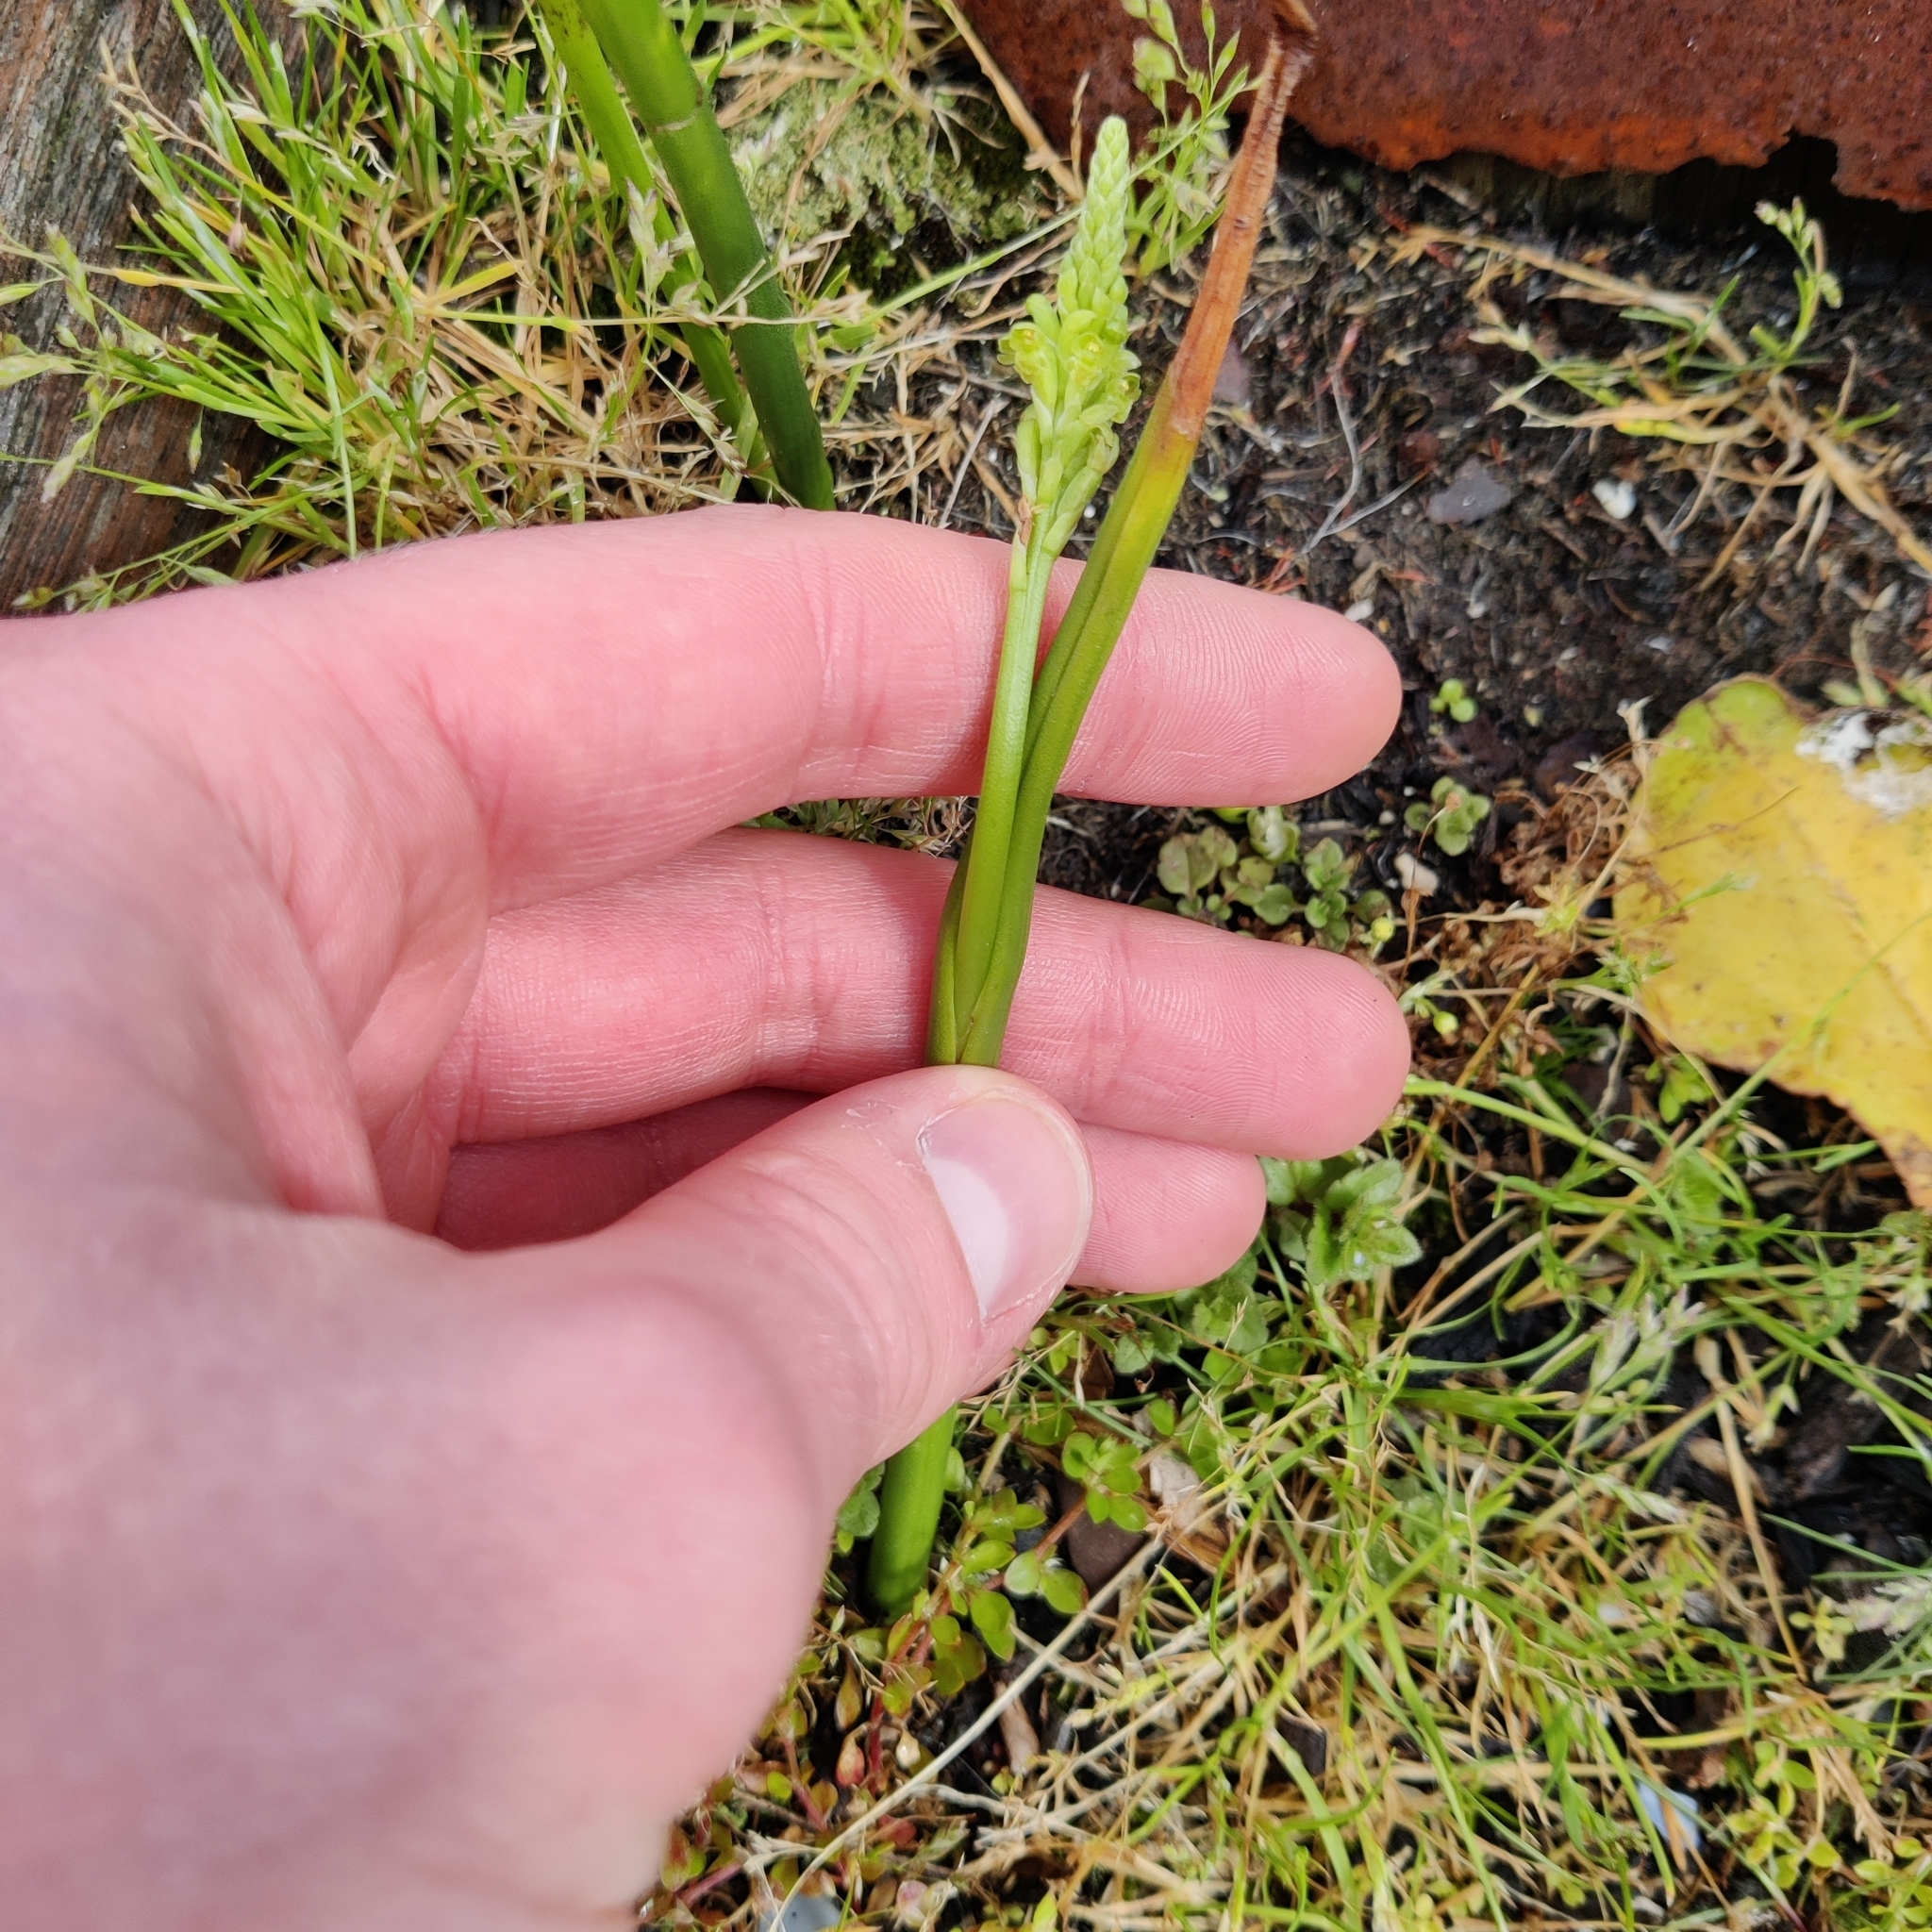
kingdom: Plantae
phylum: Tracheophyta
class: Liliopsida
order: Asparagales
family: Orchidaceae
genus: Microtis
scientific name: Microtis unifolia
